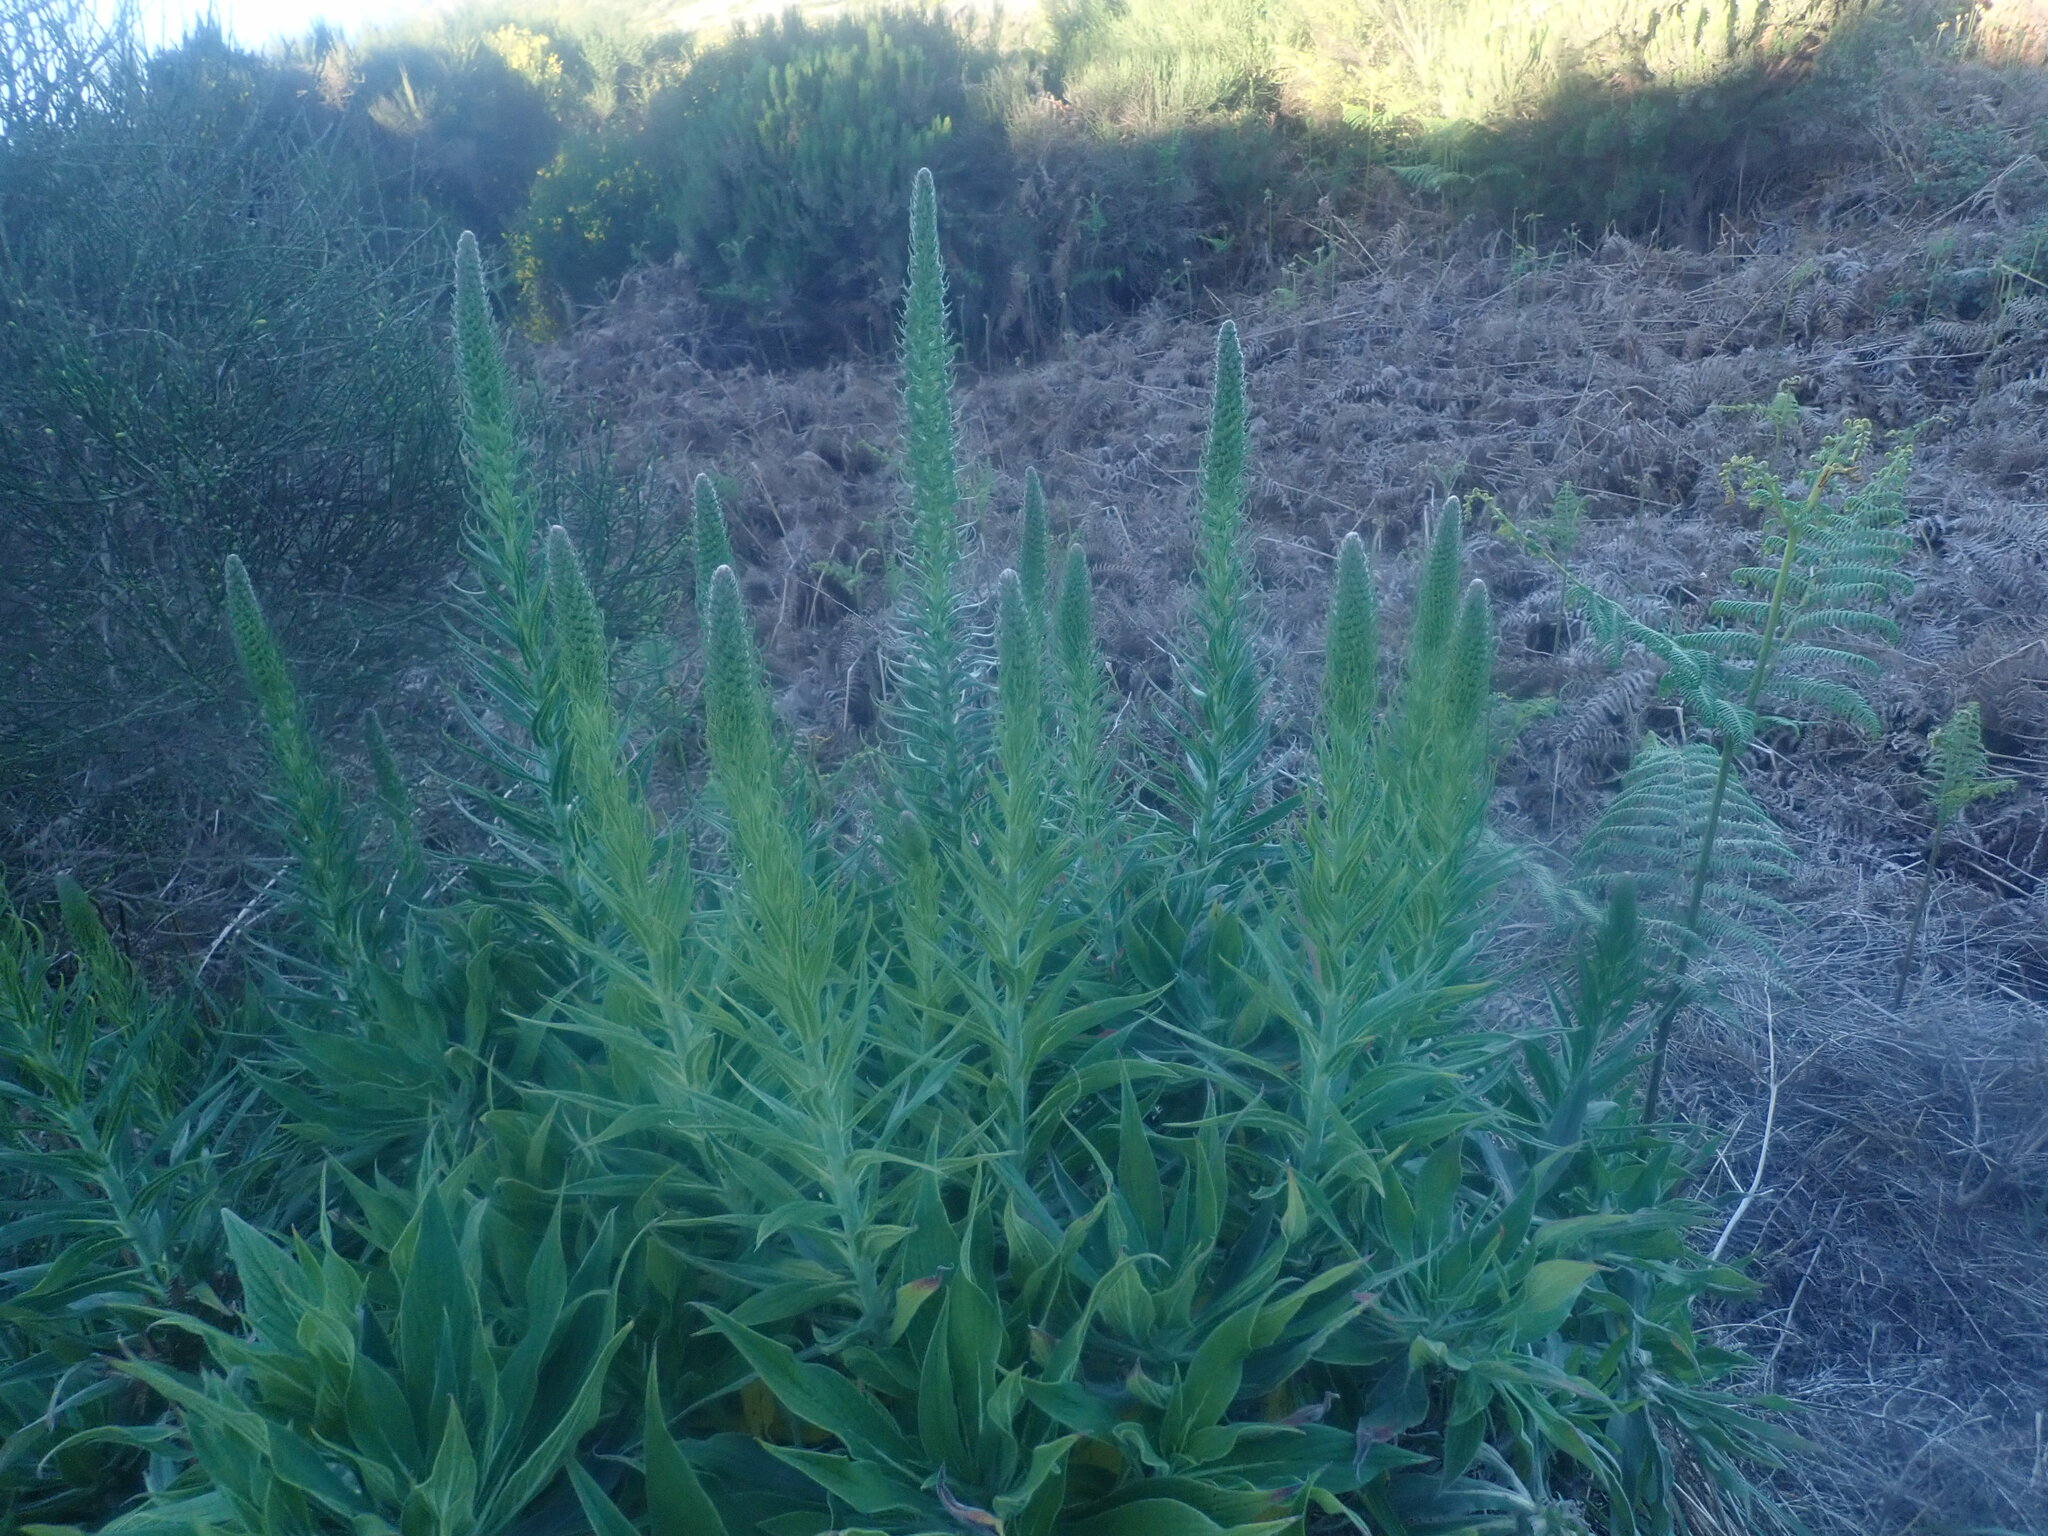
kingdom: Plantae
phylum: Tracheophyta
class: Magnoliopsida
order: Boraginales
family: Boraginaceae
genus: Echium
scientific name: Echium candicans
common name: Pride of madeira
